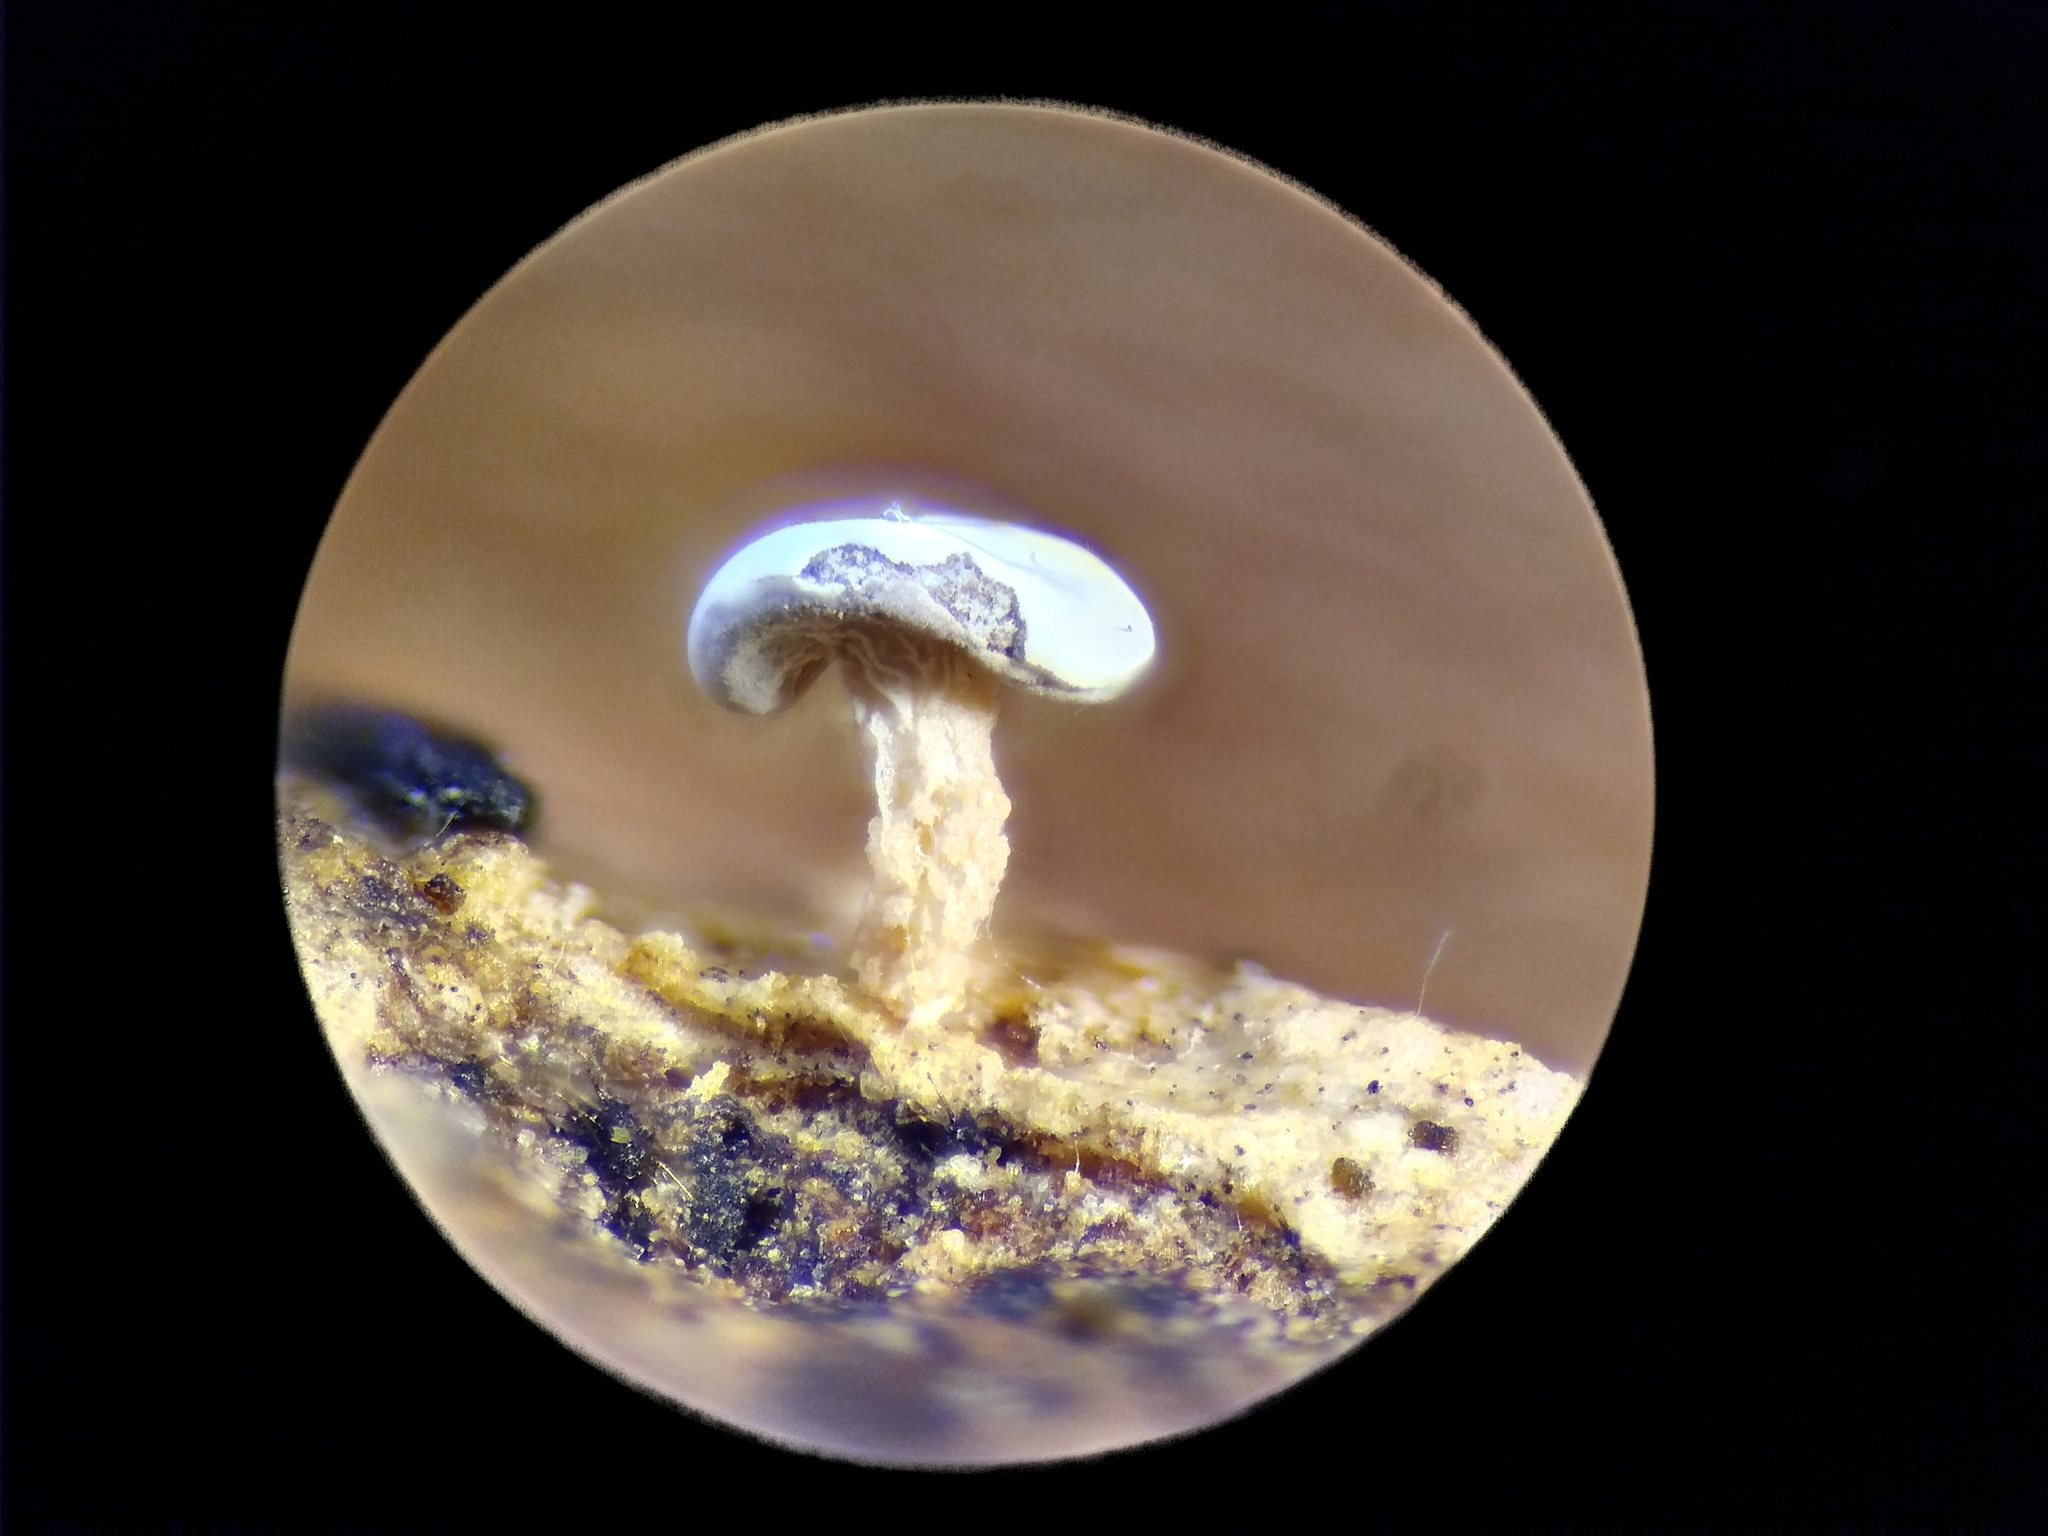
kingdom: Protozoa
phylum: Mycetozoa
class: Myxomycetes
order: Physarales
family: Didymiaceae
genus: Diderma
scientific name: Diderma hemisphaericum
